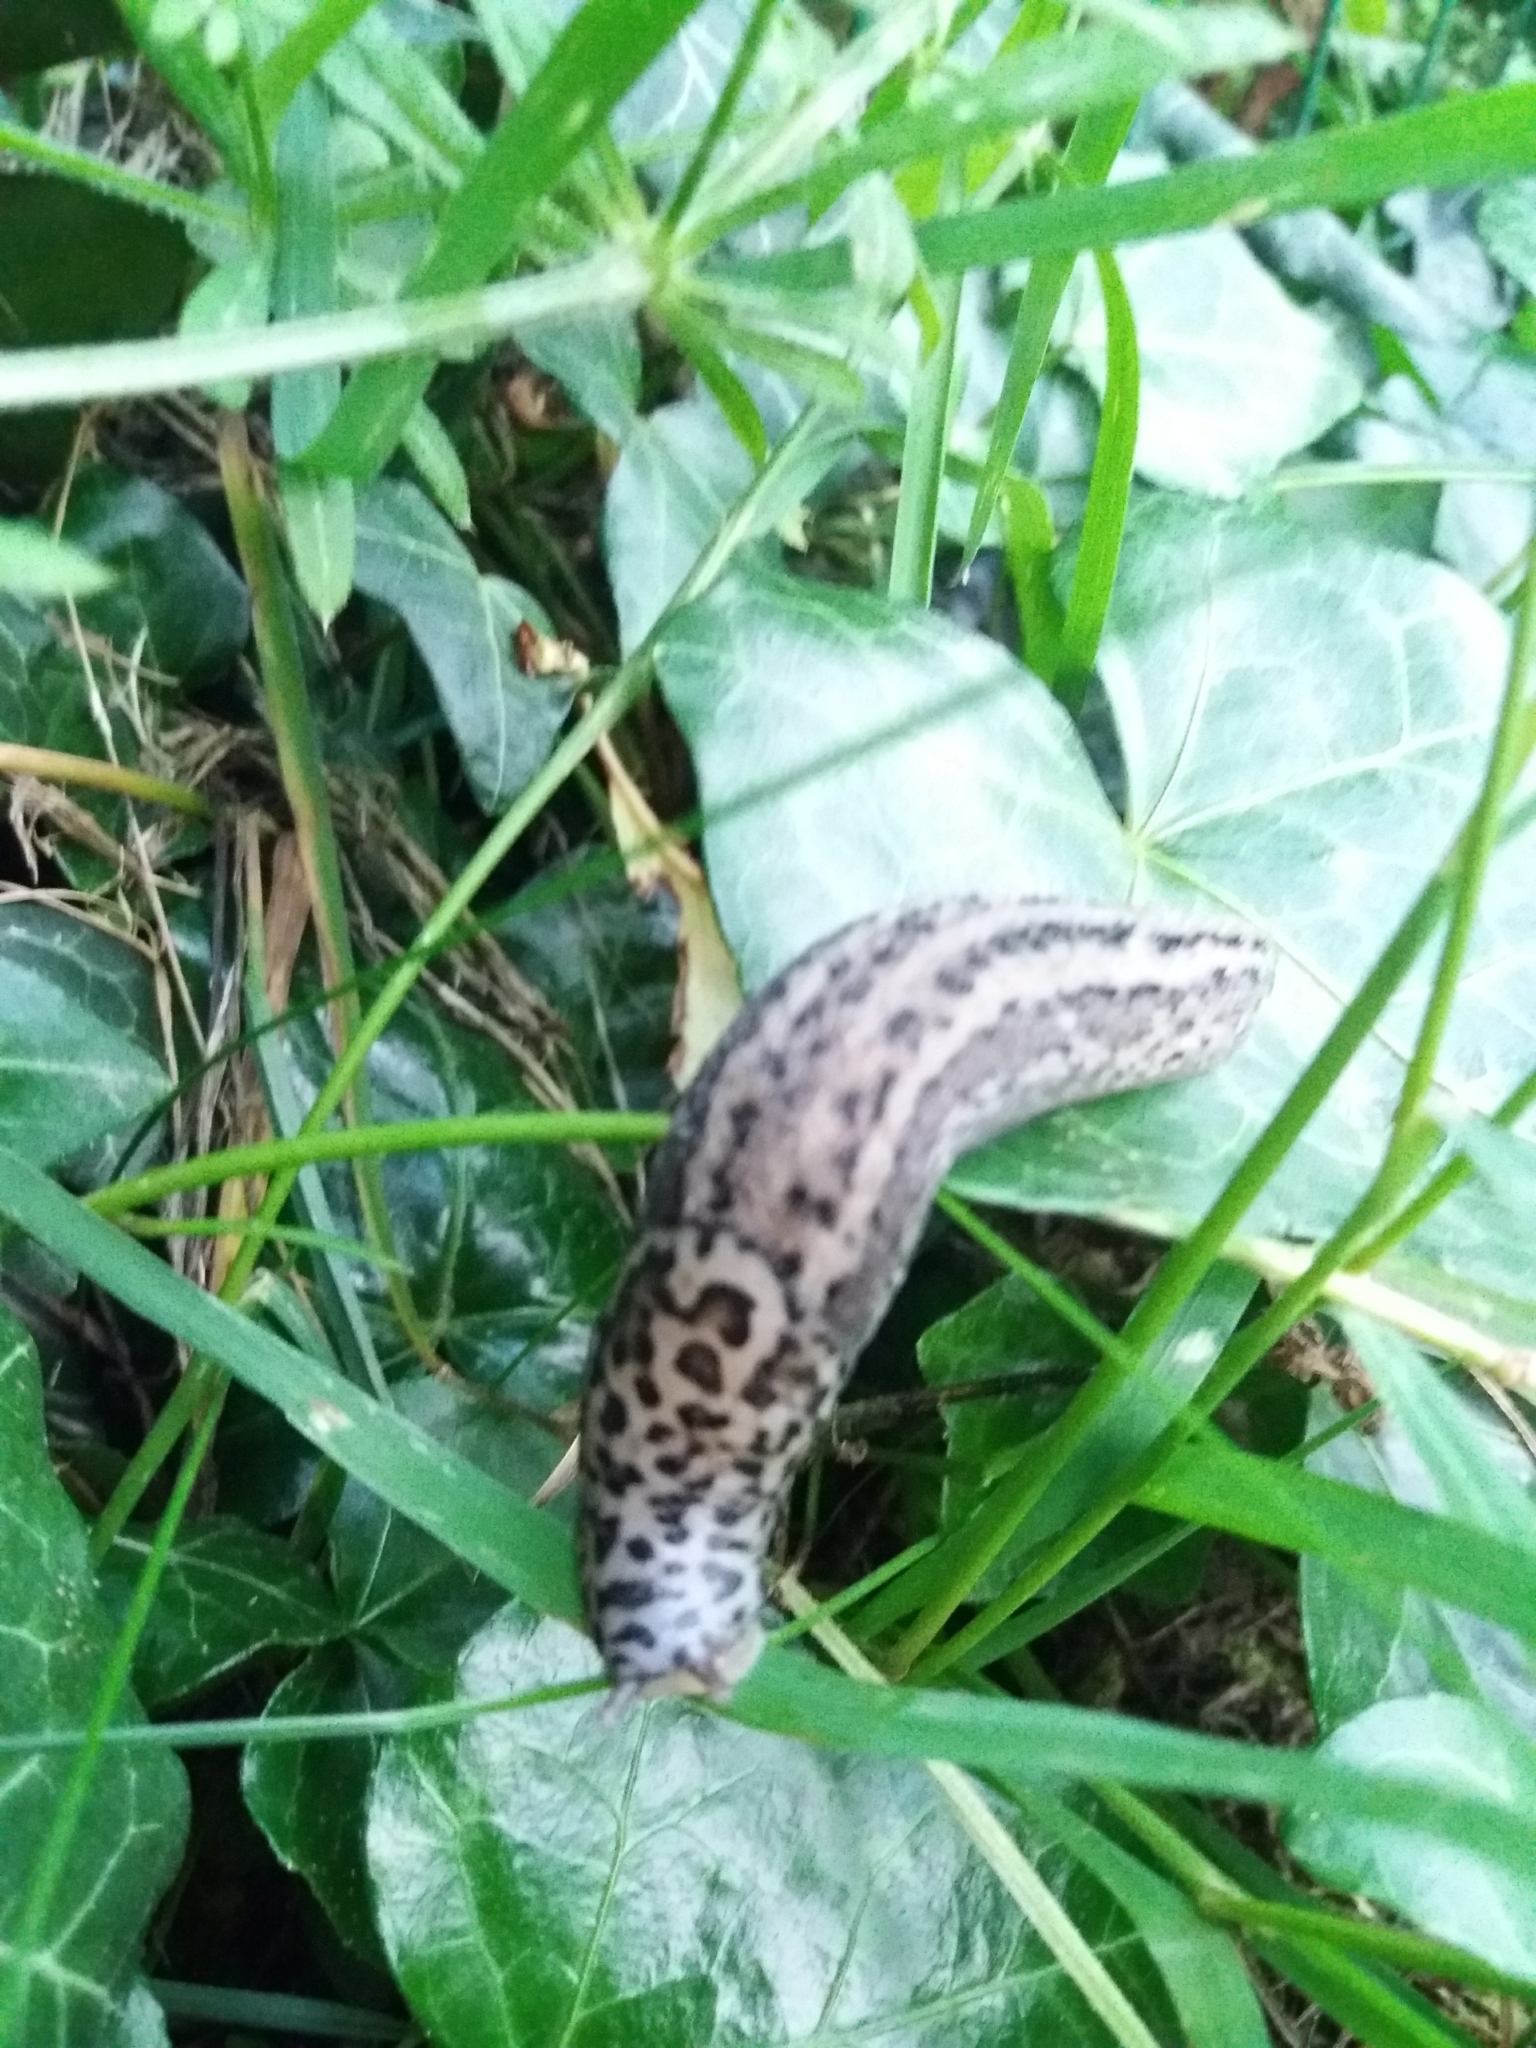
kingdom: Animalia
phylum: Mollusca
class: Gastropoda
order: Stylommatophora
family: Limacidae
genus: Limax
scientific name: Limax maximus
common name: Great grey slug
